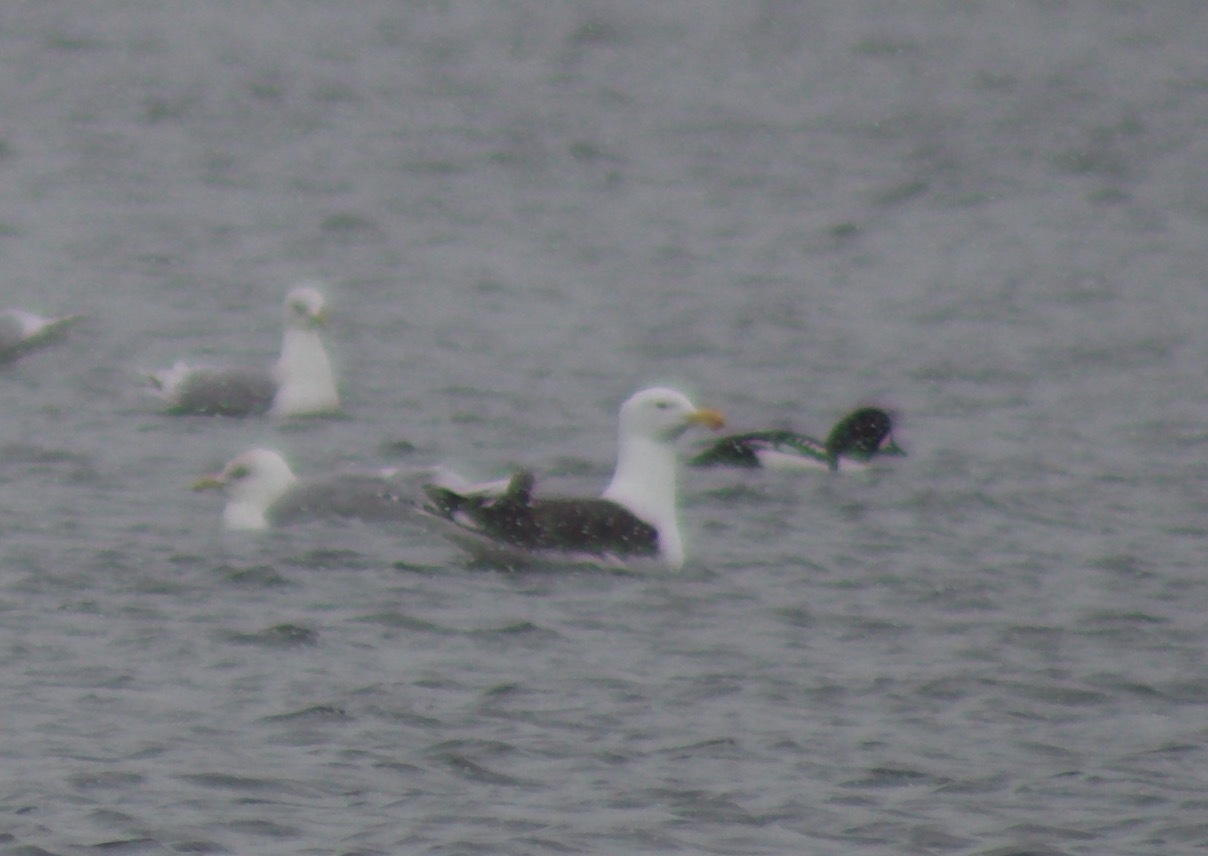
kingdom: Animalia
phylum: Chordata
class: Aves
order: Charadriiformes
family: Laridae
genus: Larus
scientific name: Larus marinus
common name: Great black-backed gull
